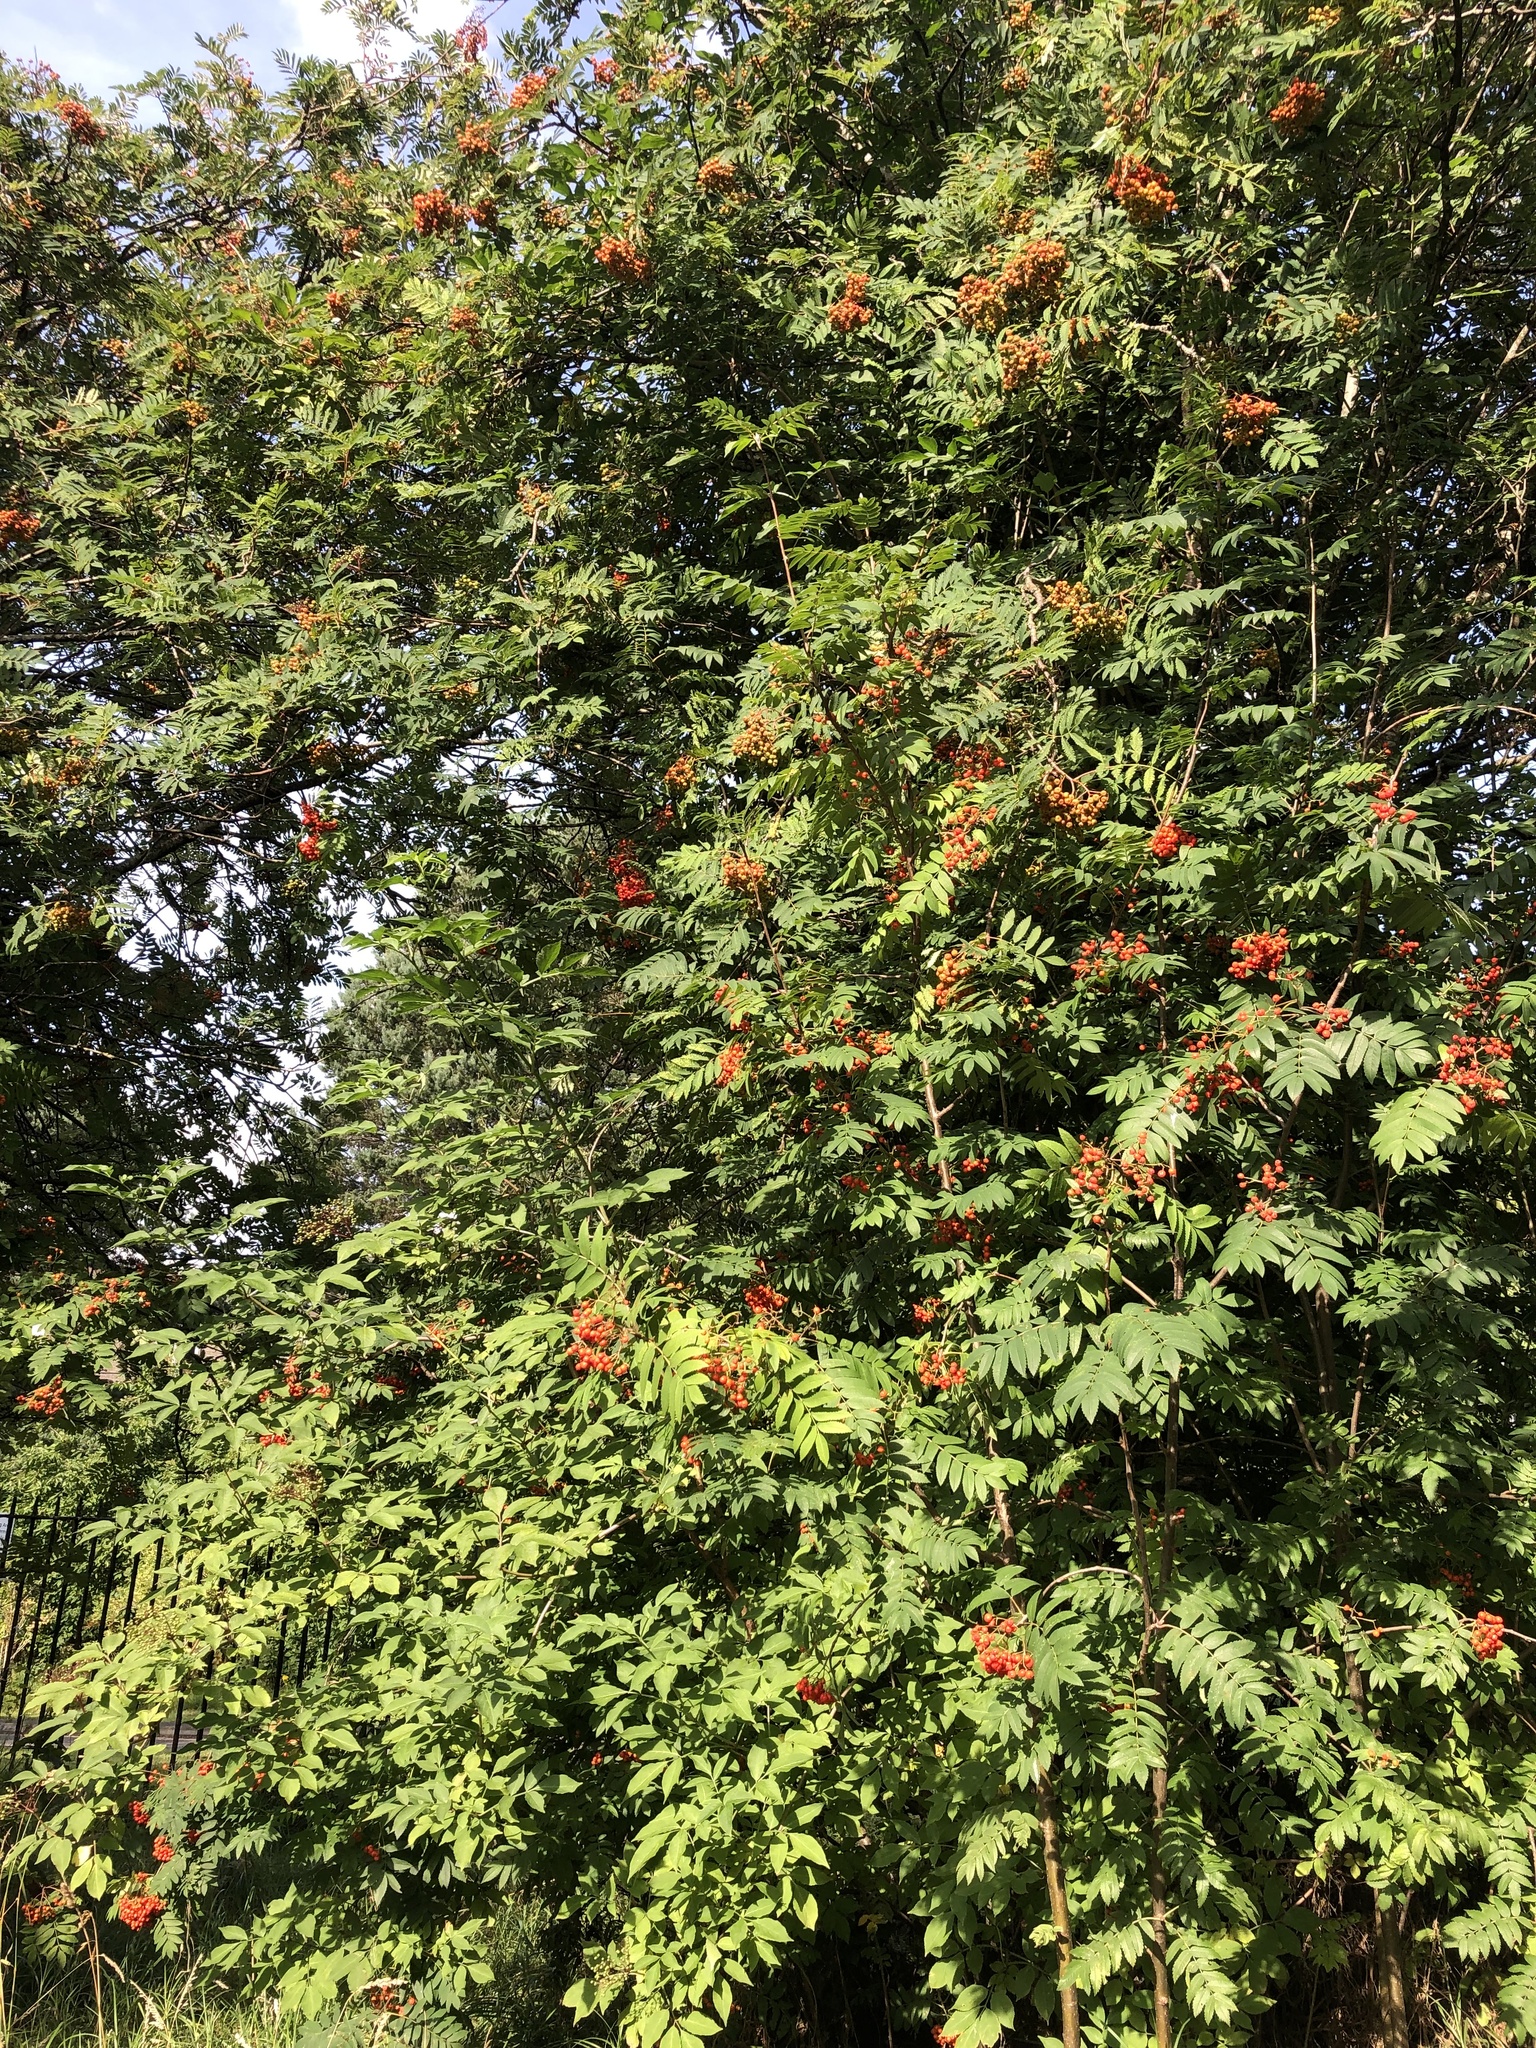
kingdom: Plantae
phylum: Tracheophyta
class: Magnoliopsida
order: Rosales
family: Rosaceae
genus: Sorbus
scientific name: Sorbus aucuparia
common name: Rowan
